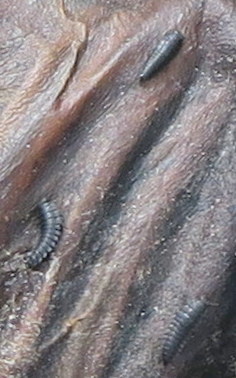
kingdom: Animalia
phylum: Arthropoda
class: Insecta
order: Coleoptera
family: Staphylinidae
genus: Ptomaphila
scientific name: Ptomaphila lacrymosa
